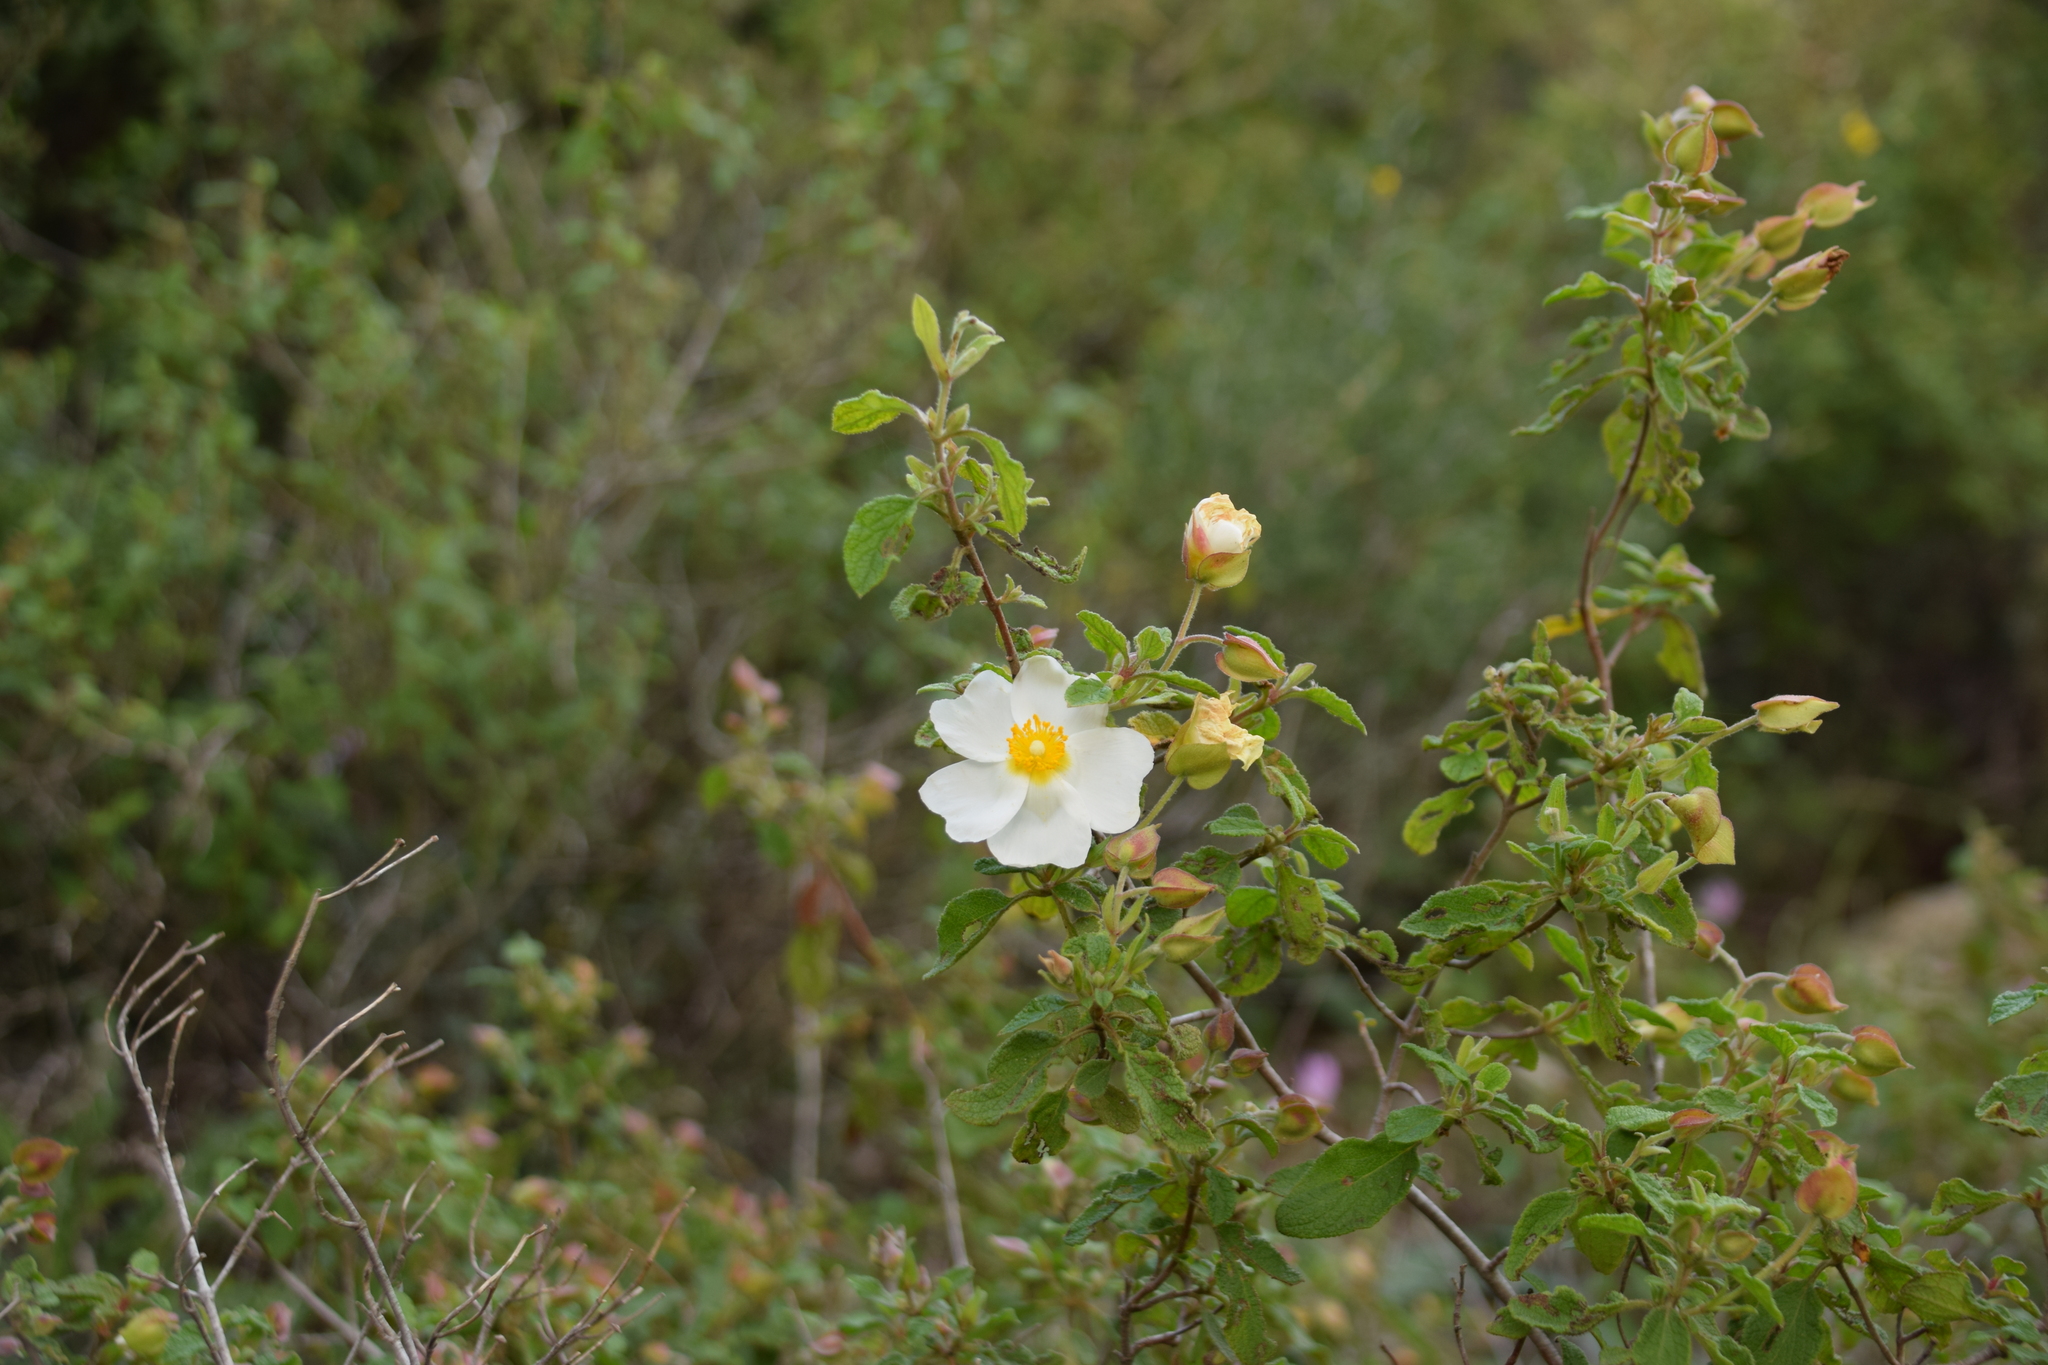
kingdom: Plantae
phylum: Tracheophyta
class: Magnoliopsida
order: Malvales
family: Cistaceae
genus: Cistus
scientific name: Cistus salviifolius
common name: Salvia cistus
